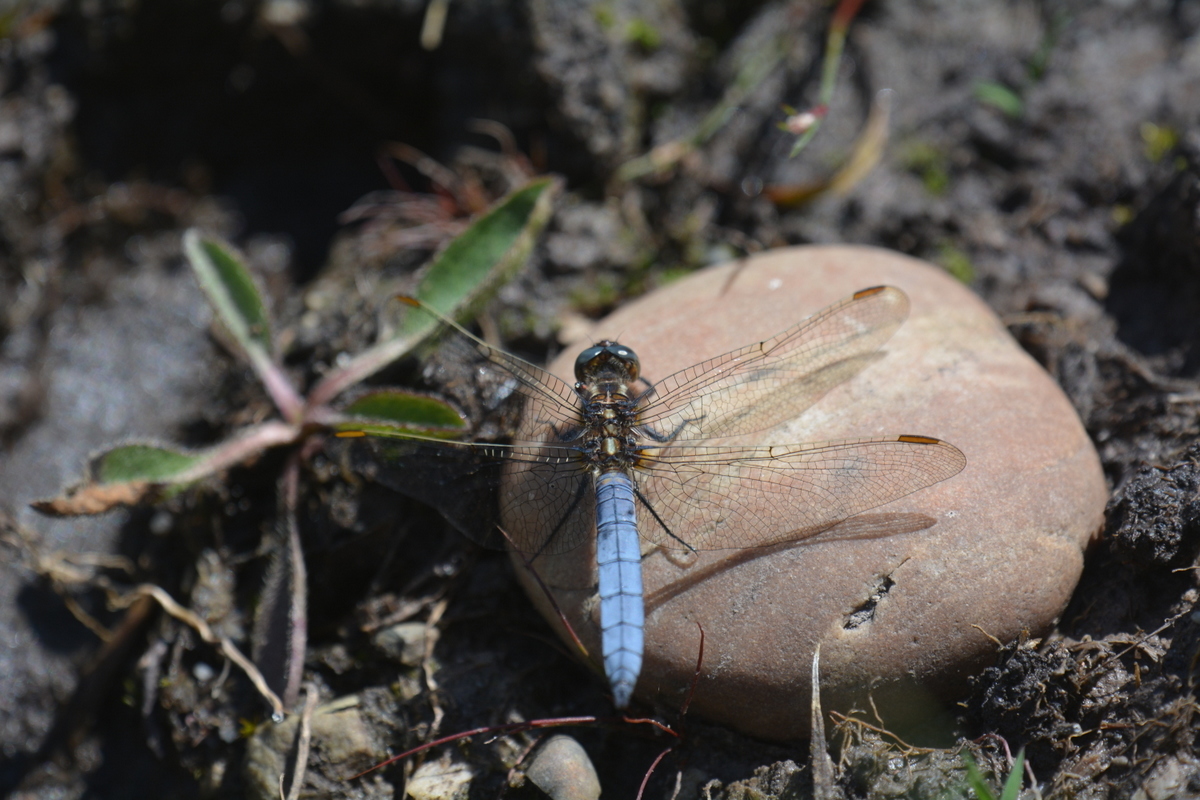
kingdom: Animalia
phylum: Arthropoda
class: Insecta
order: Odonata
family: Libellulidae
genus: Orthetrum
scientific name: Orthetrum coerulescens
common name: Keeled skimmer
